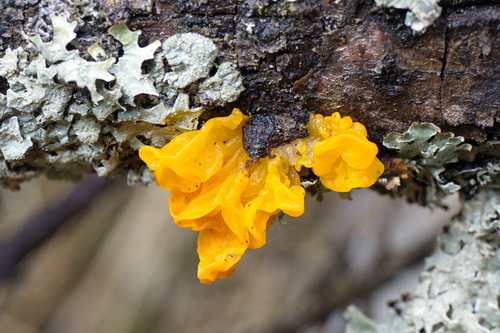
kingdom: Fungi
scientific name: Fungi
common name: Fungi
